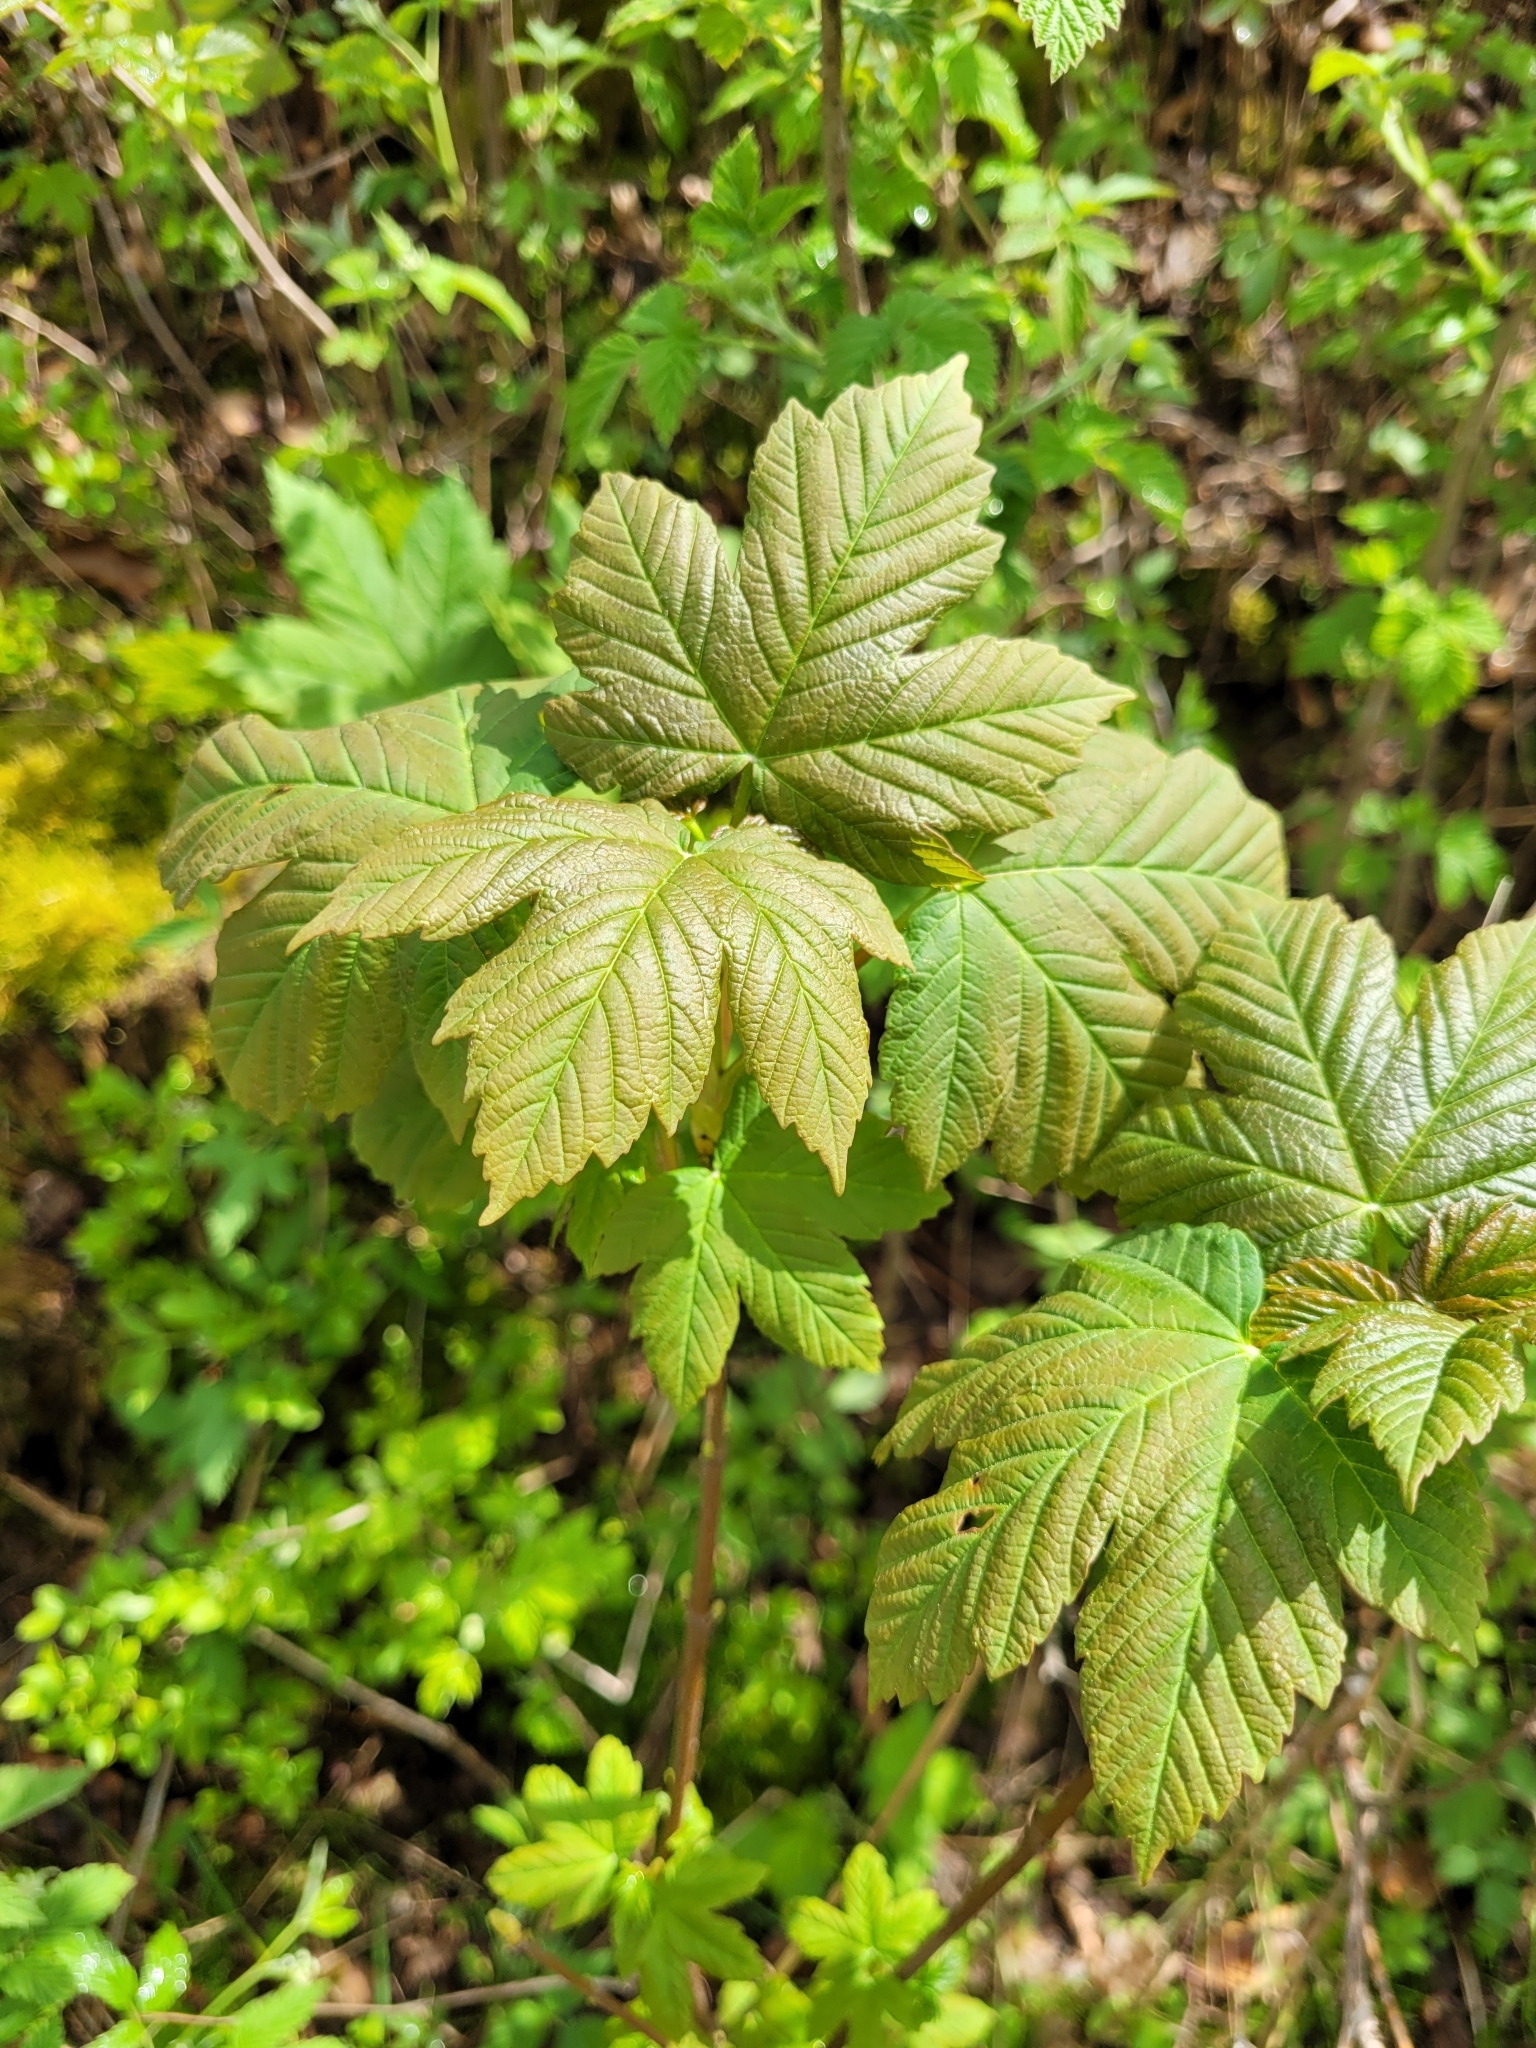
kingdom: Plantae
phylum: Tracheophyta
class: Magnoliopsida
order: Sapindales
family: Sapindaceae
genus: Acer
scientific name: Acer pseudoplatanus
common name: Sycamore
